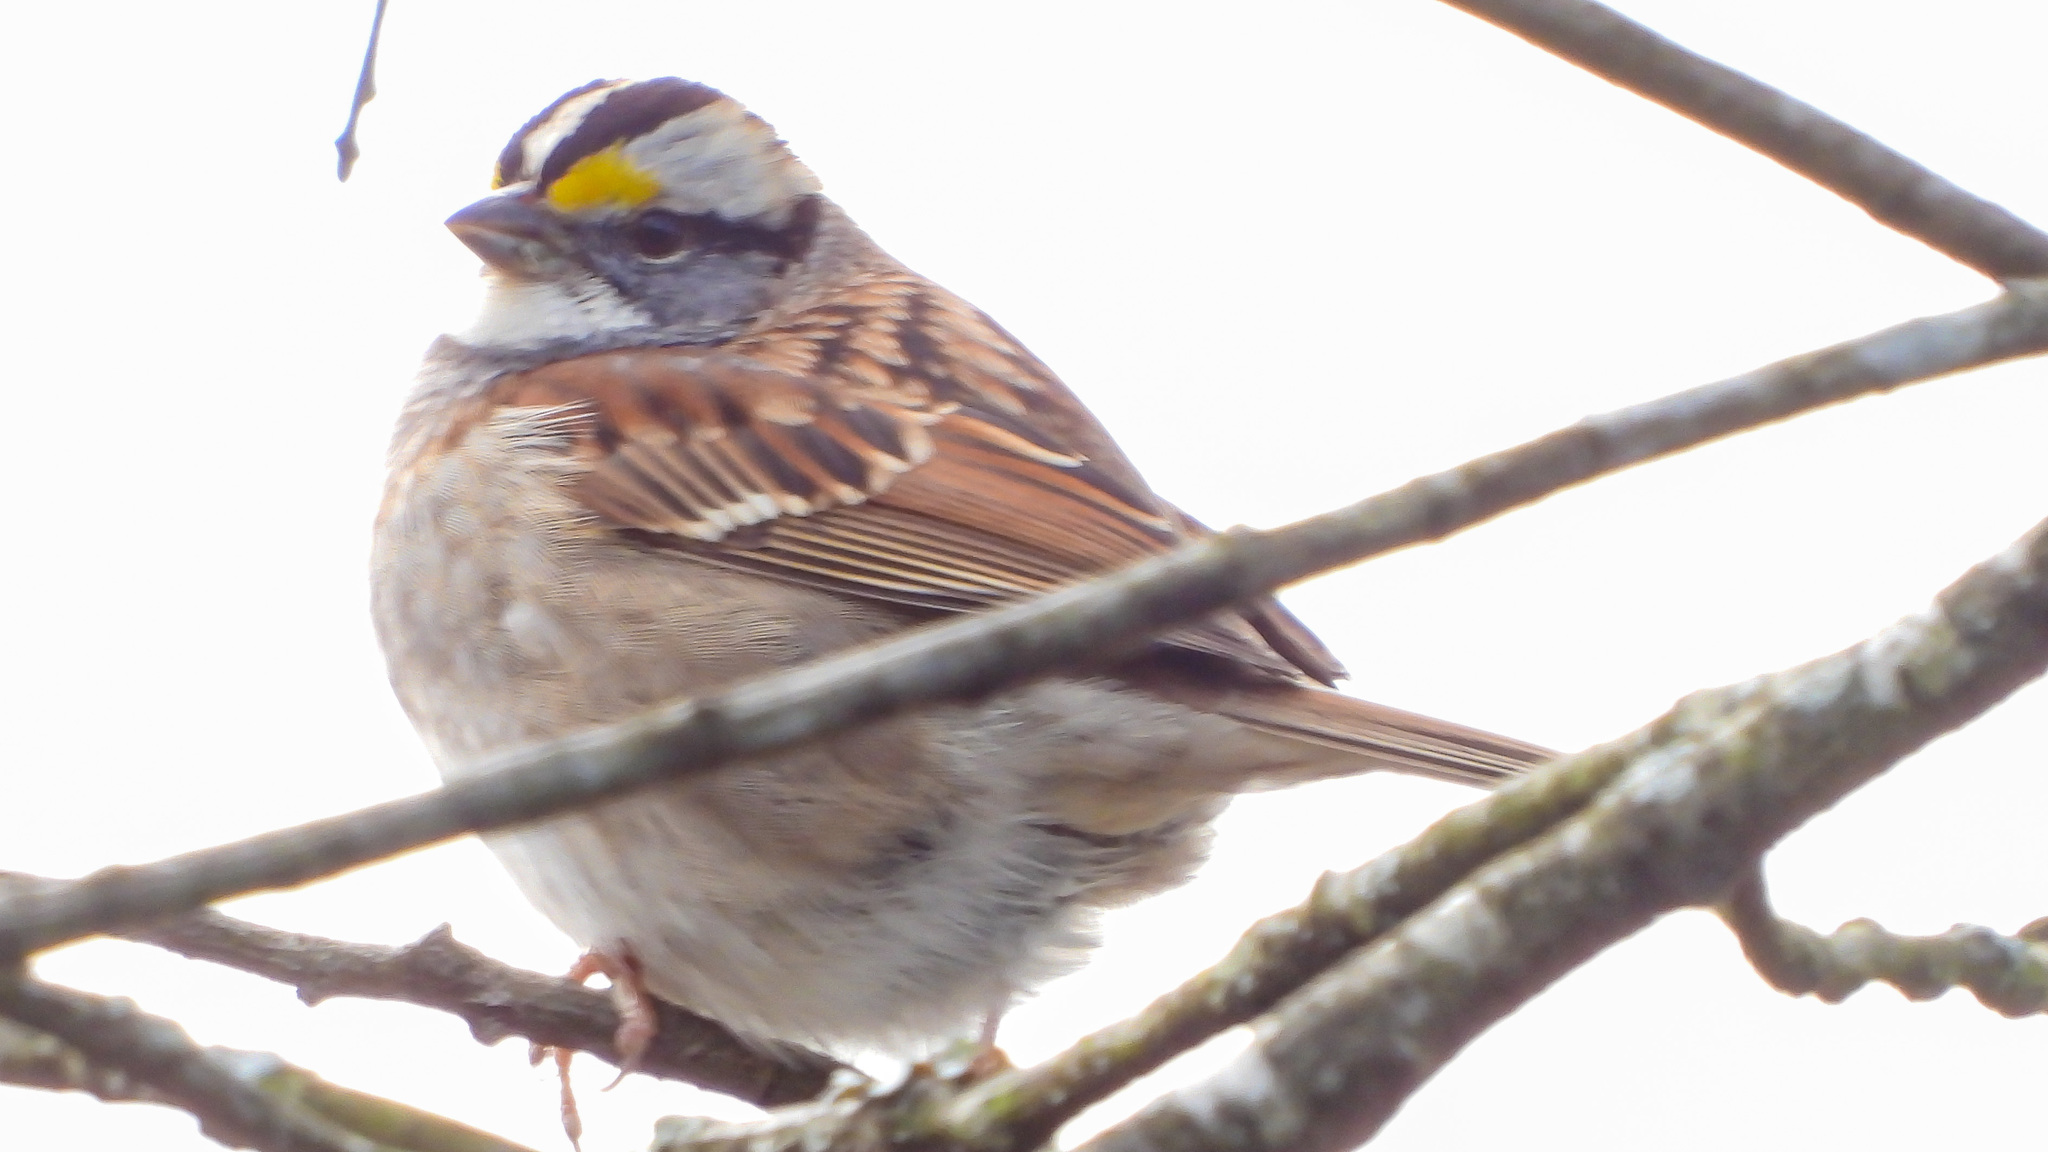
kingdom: Animalia
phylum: Chordata
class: Aves
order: Passeriformes
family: Passerellidae
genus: Zonotrichia
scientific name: Zonotrichia albicollis
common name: White-throated sparrow
